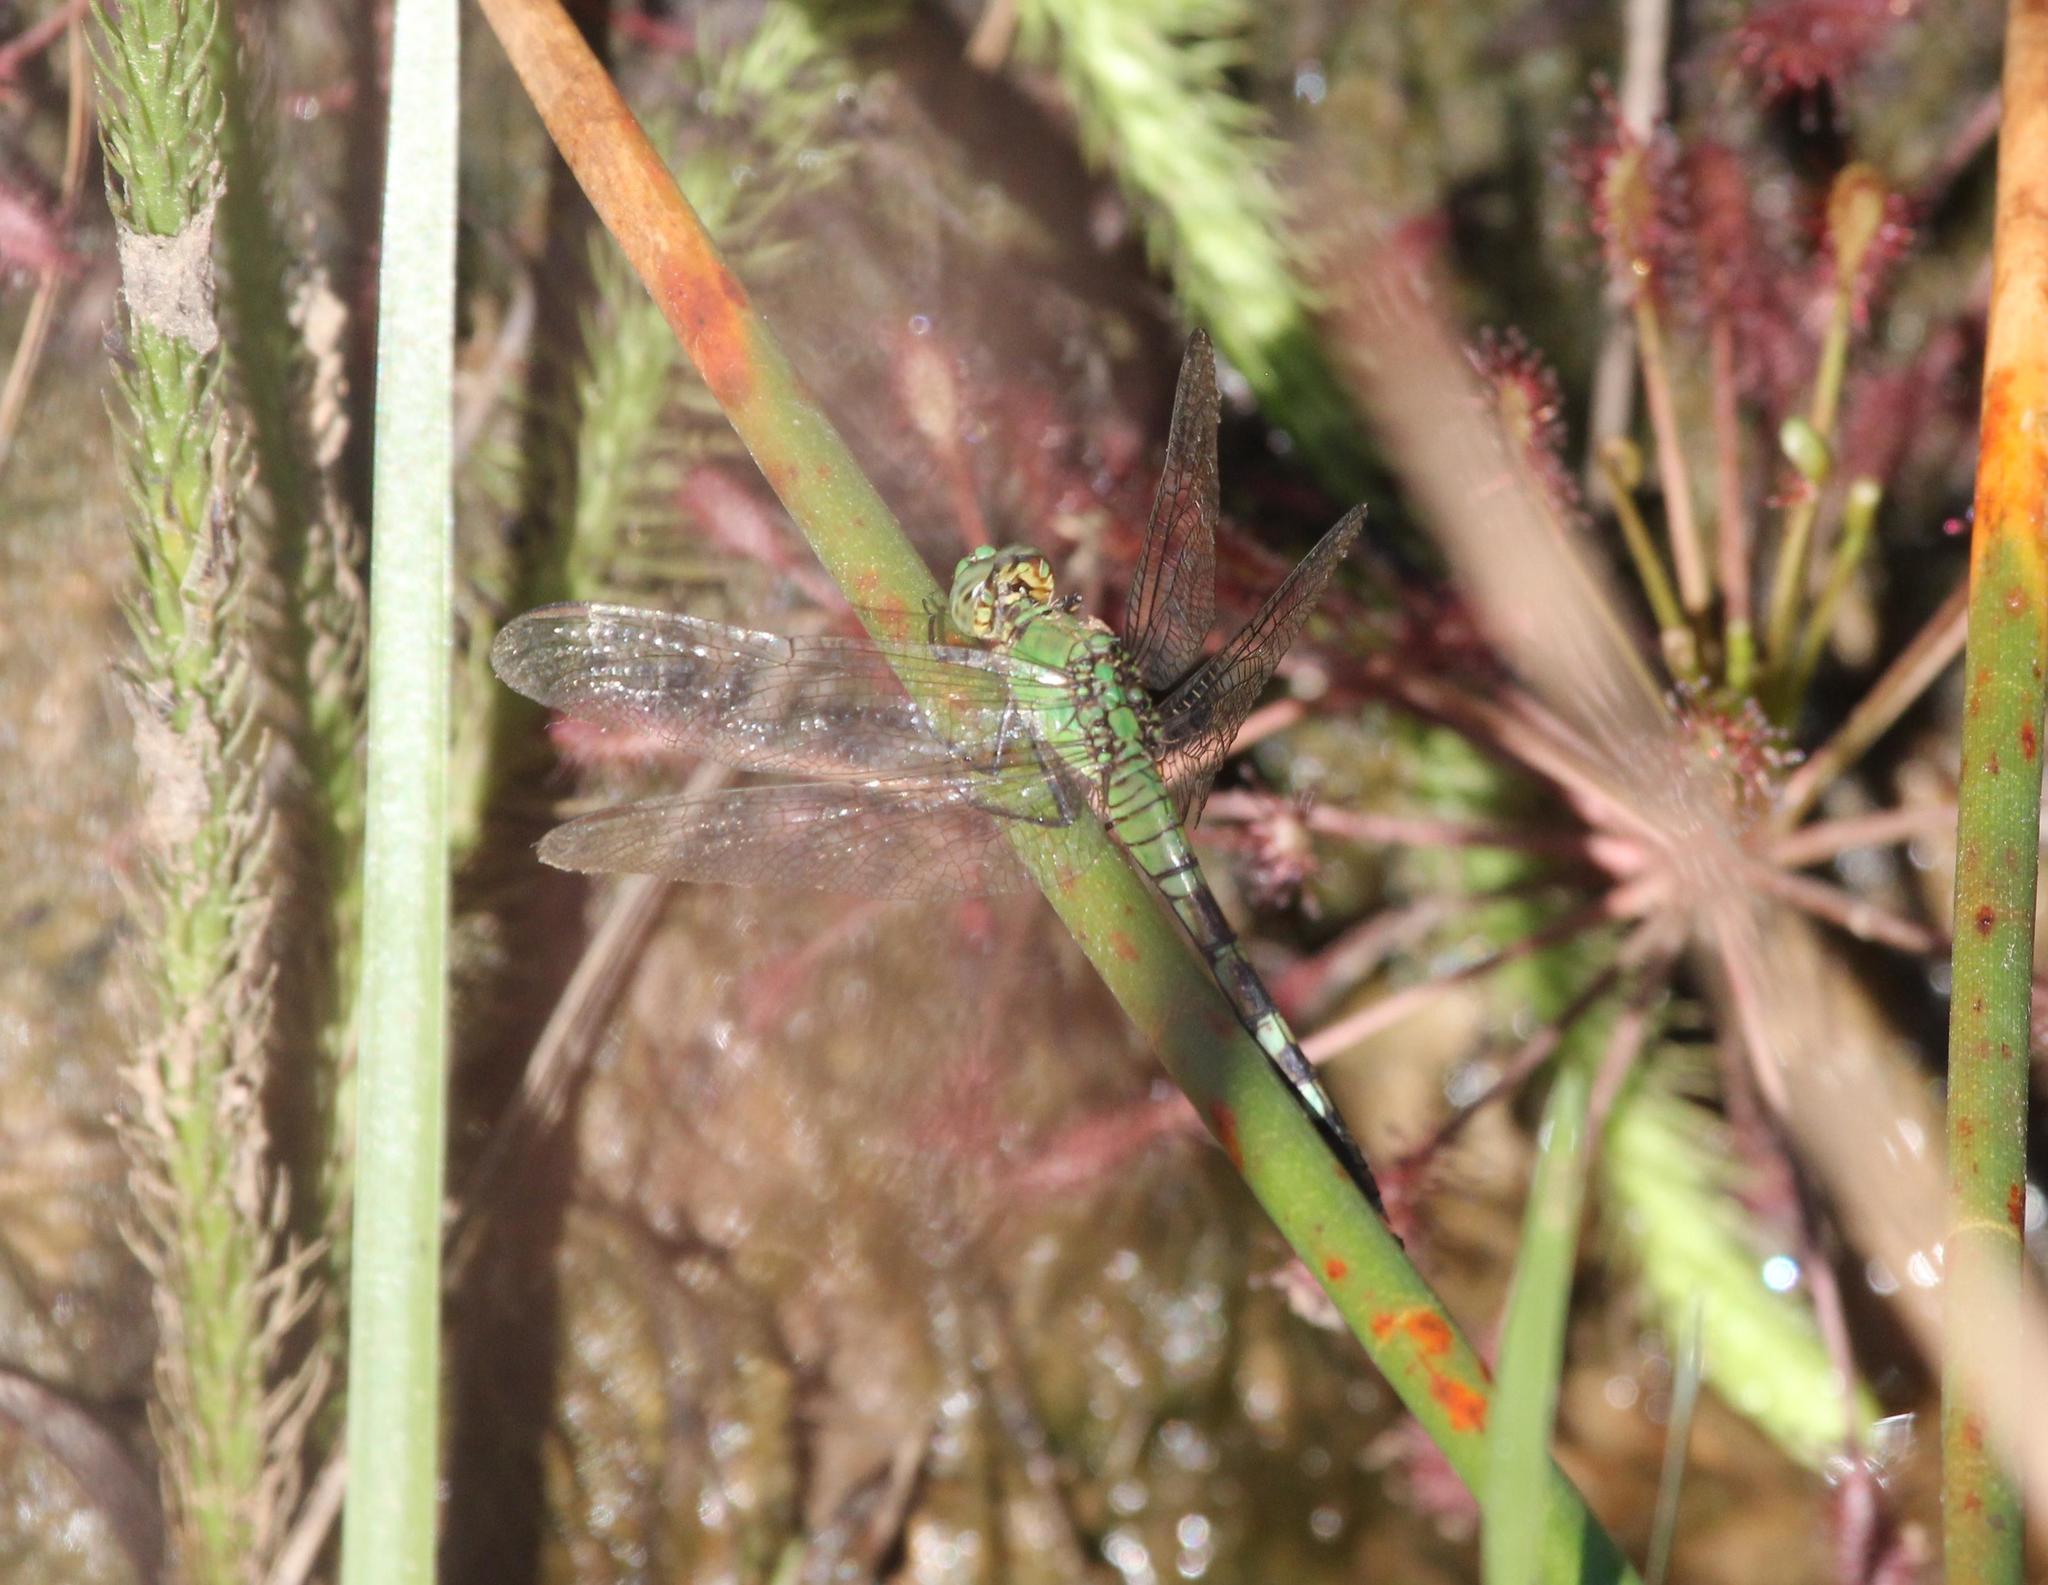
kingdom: Animalia
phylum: Arthropoda
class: Insecta
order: Odonata
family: Libellulidae
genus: Erythemis
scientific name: Erythemis simplicicollis
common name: Eastern pondhawk
